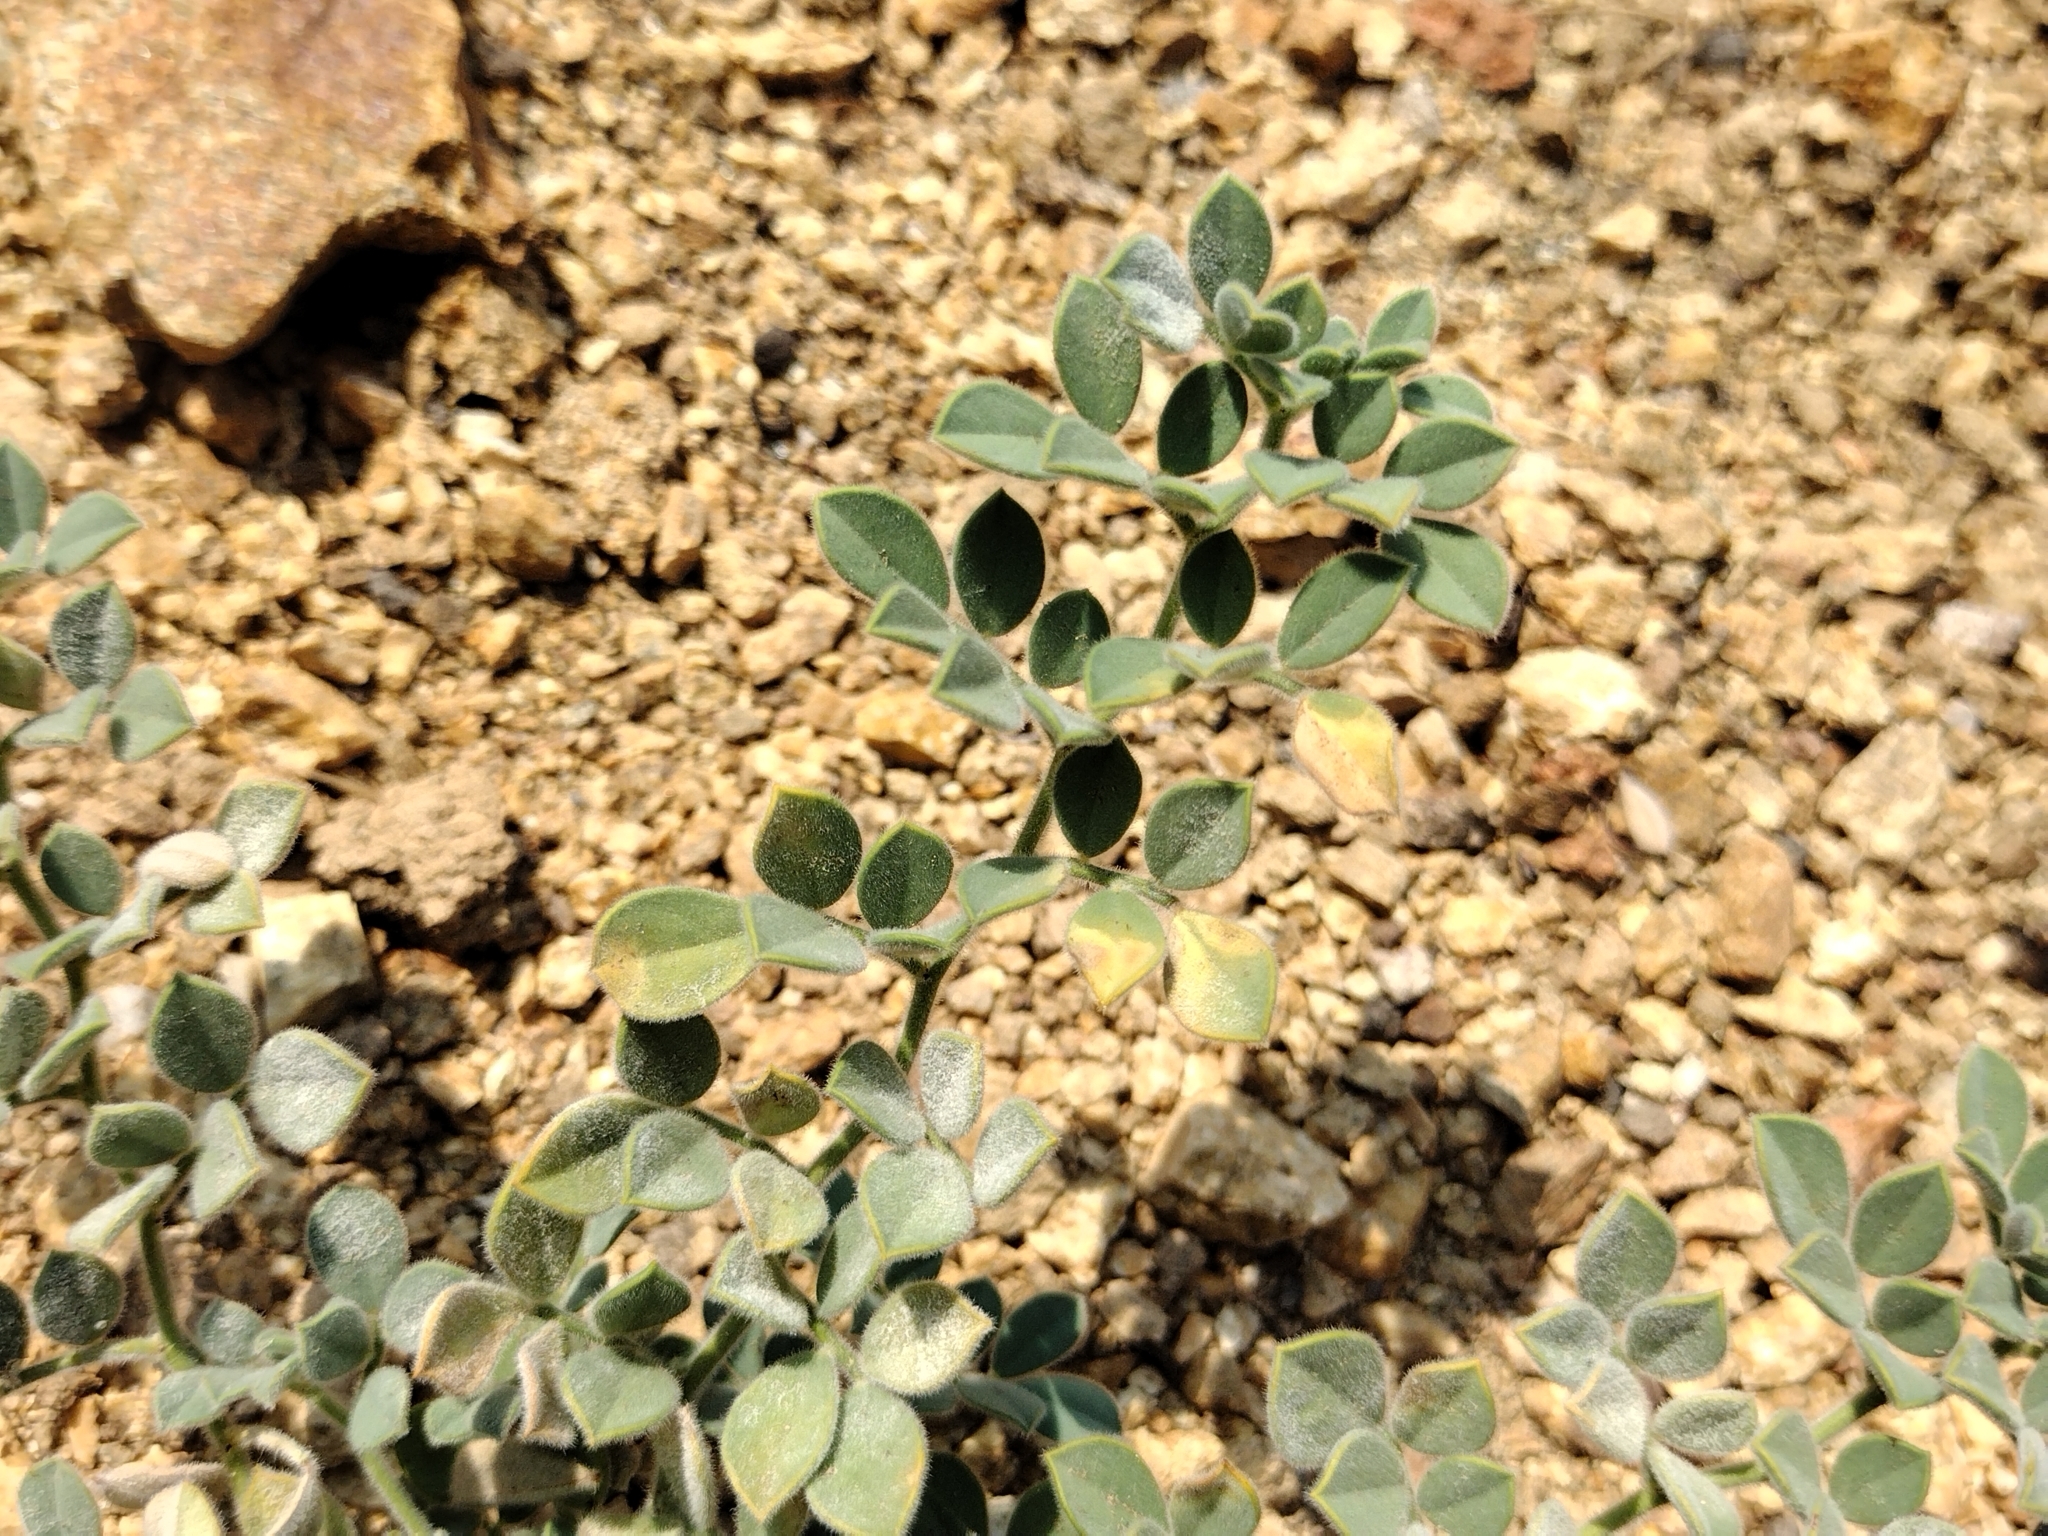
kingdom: Plantae
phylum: Tracheophyta
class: Magnoliopsida
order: Fabales
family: Fabaceae
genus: Acmispon
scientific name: Acmispon tomentosus
